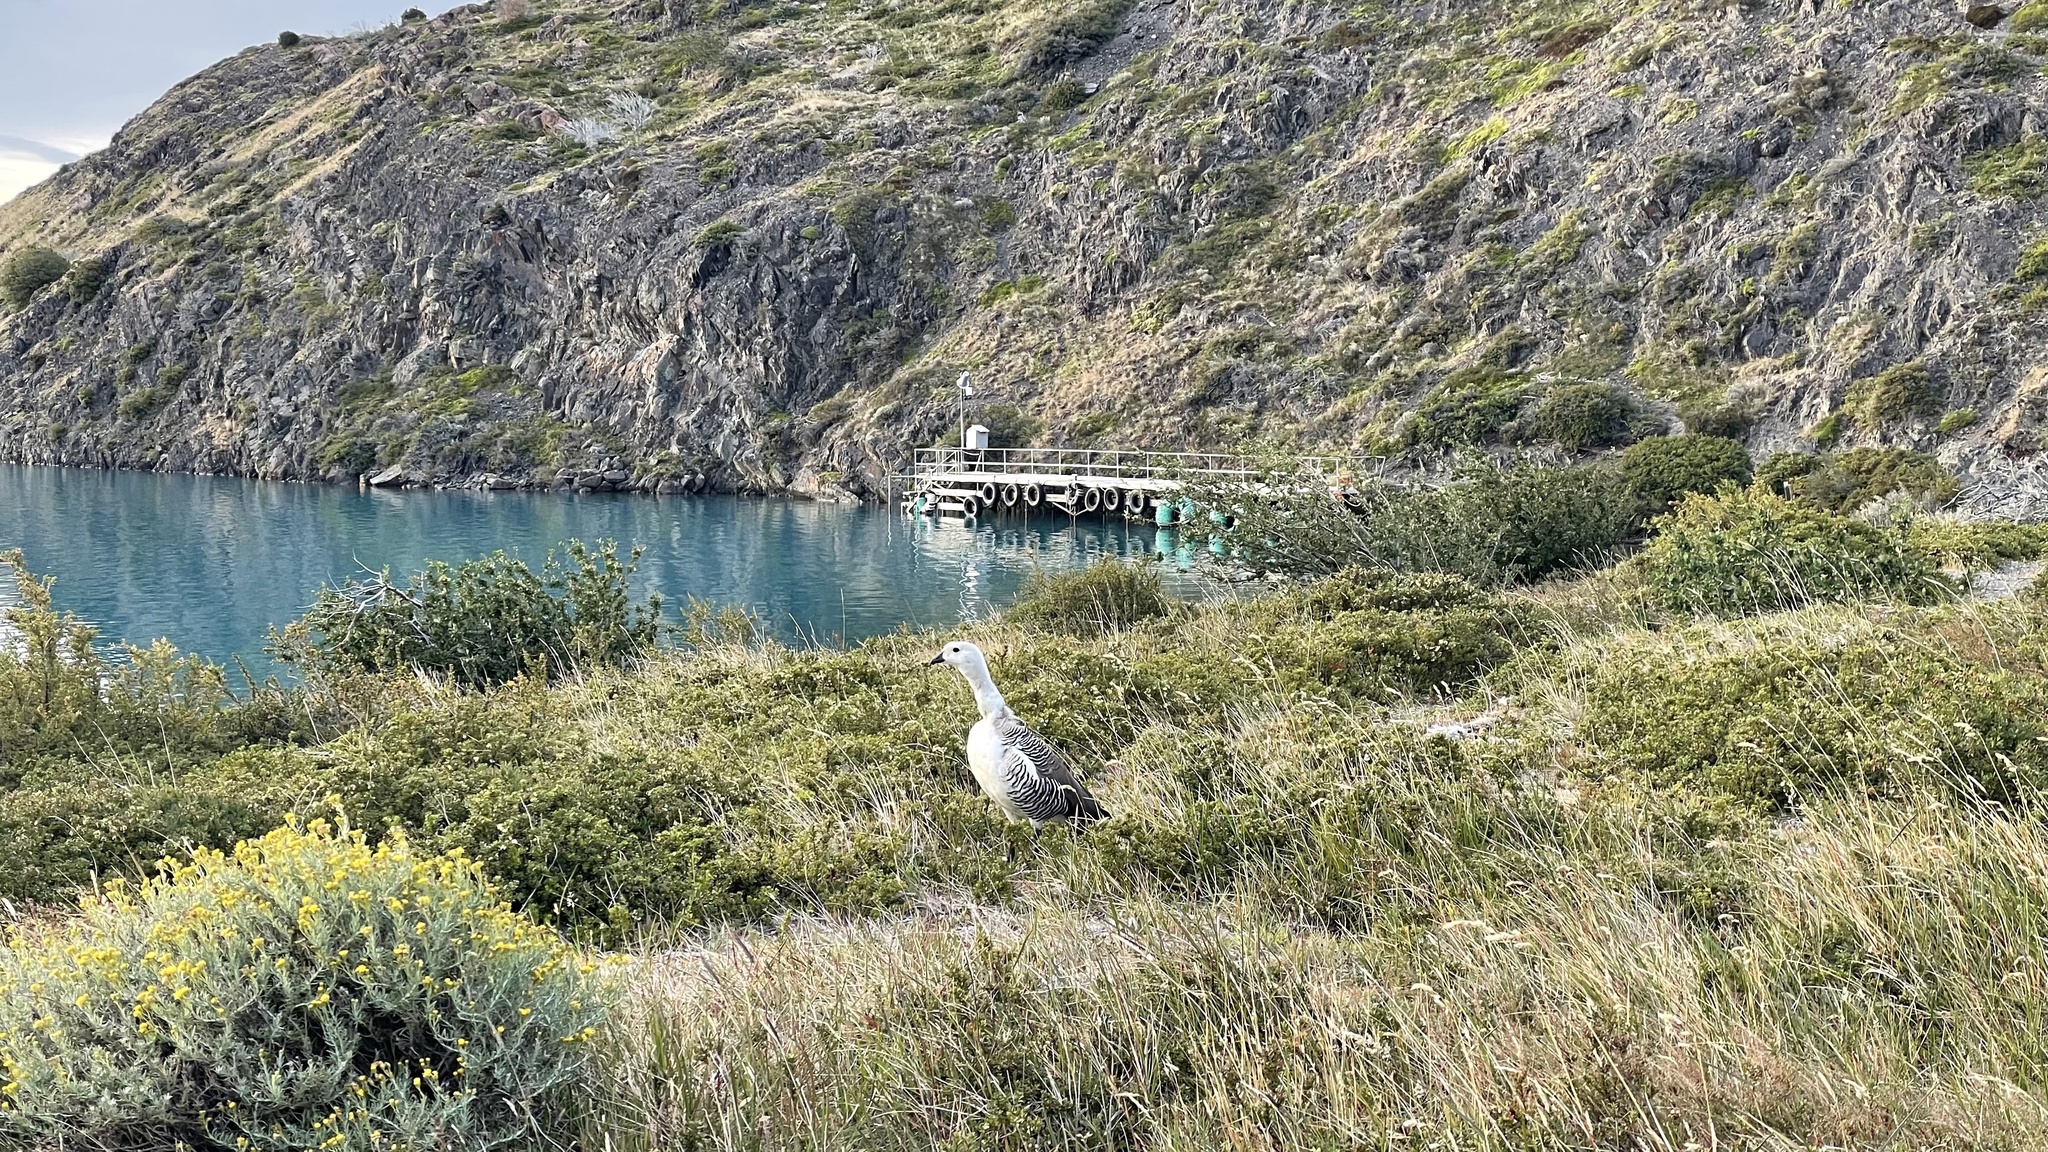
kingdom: Animalia
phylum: Chordata
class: Aves
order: Anseriformes
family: Anatidae
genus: Chloephaga
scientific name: Chloephaga picta
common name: Upland goose
